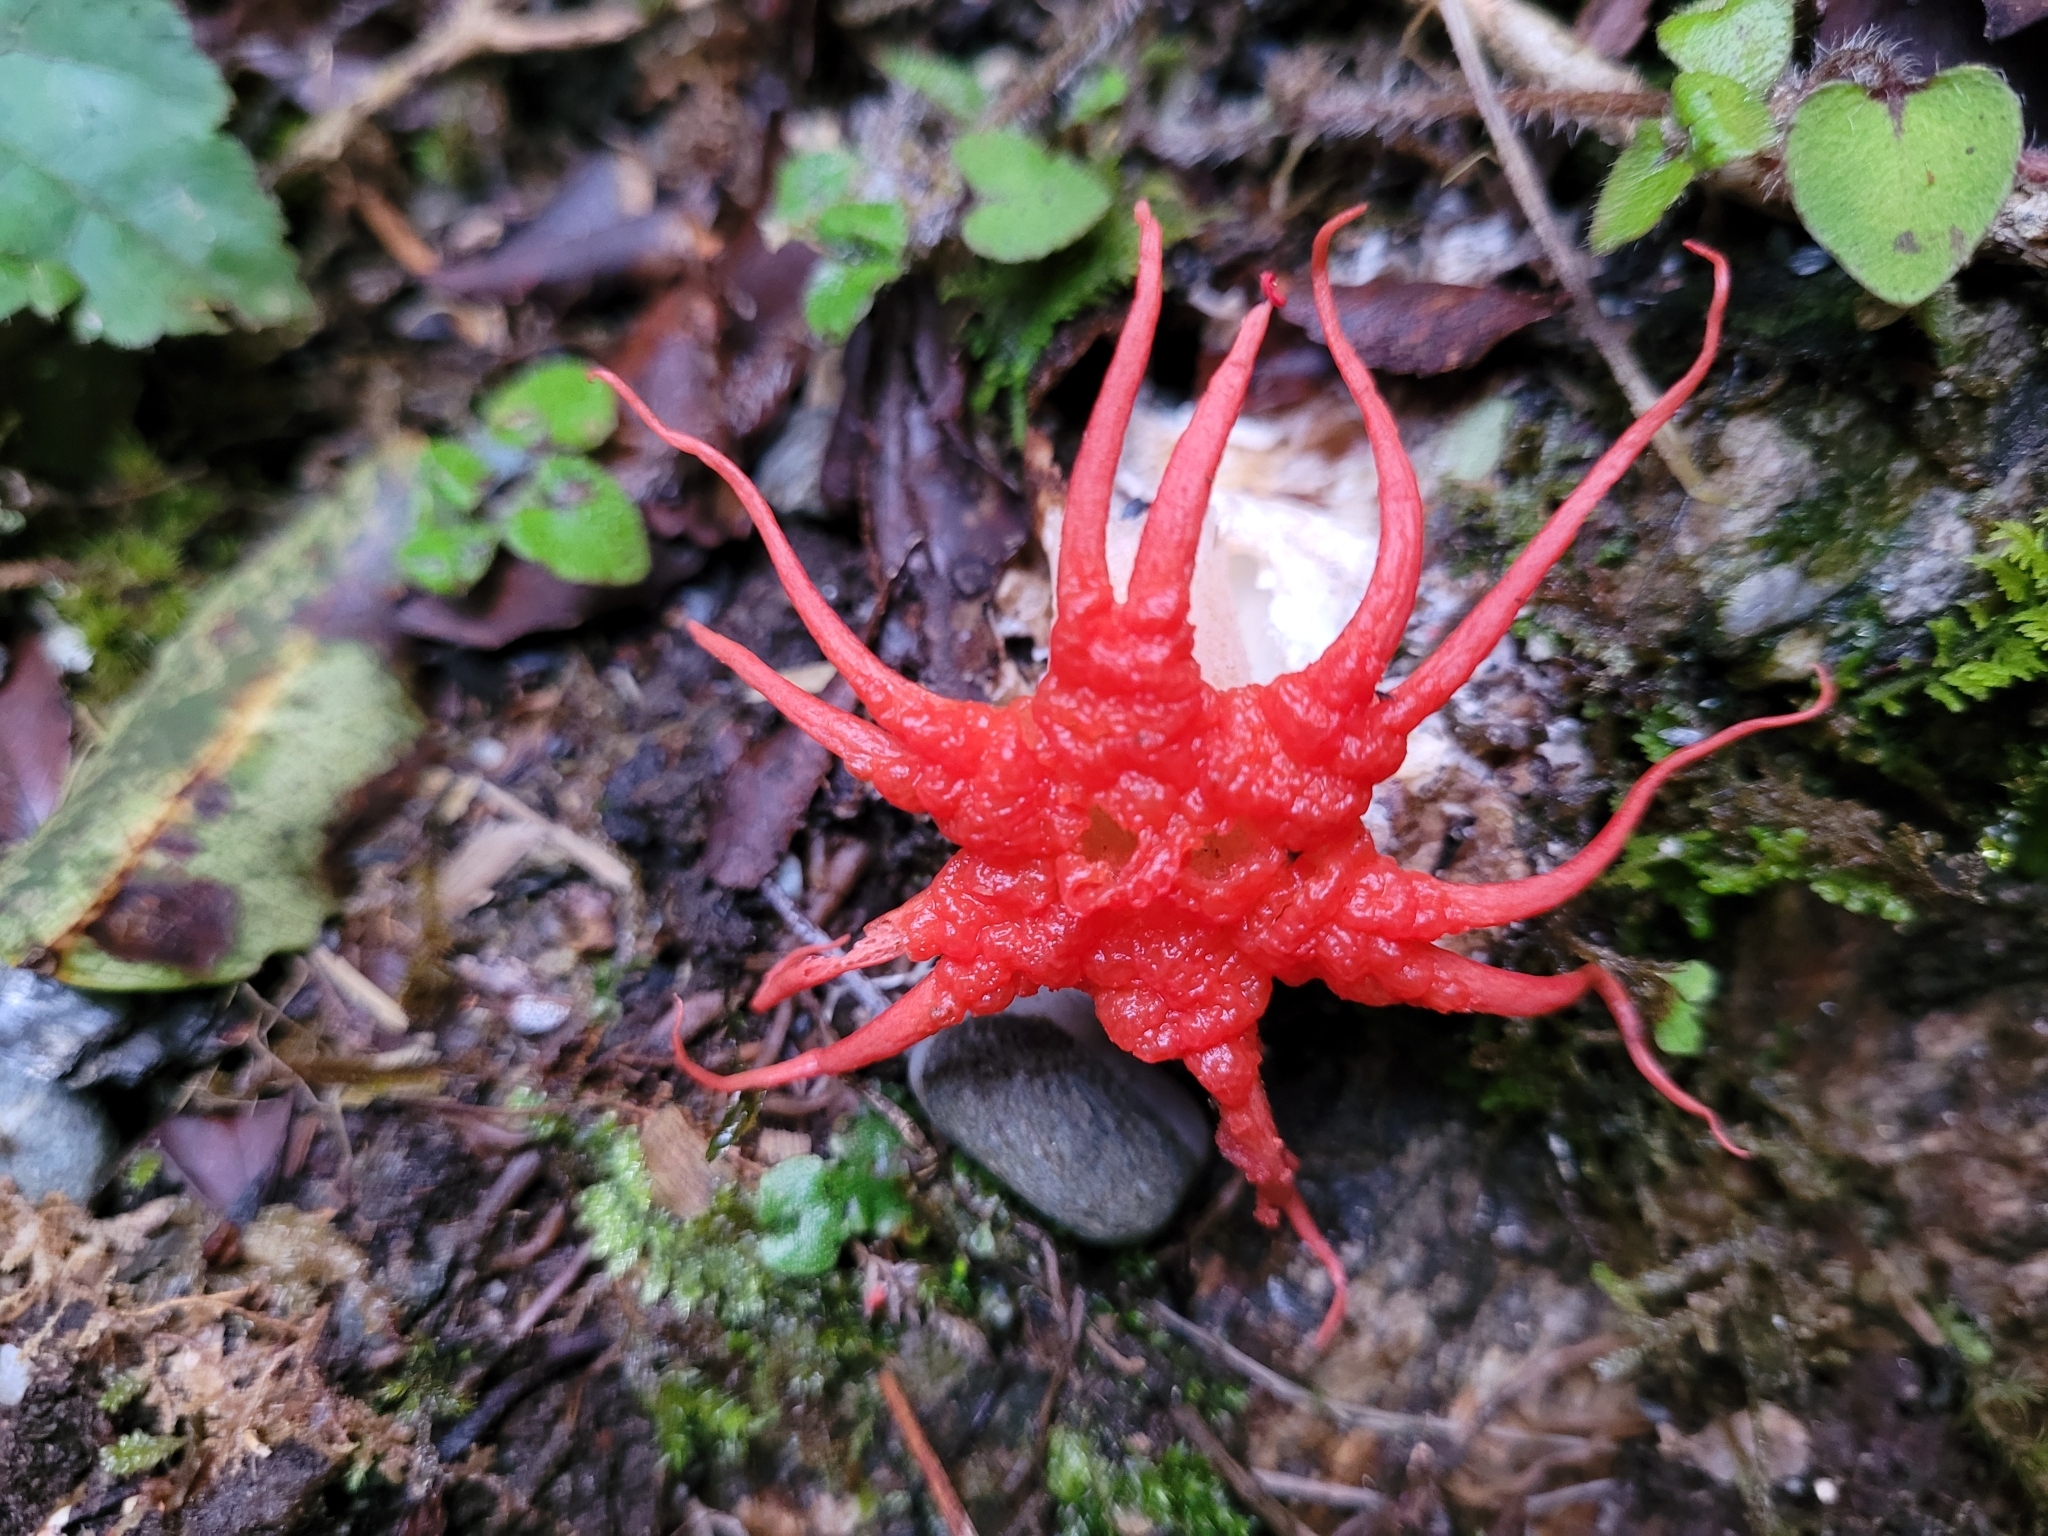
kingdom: Fungi
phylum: Basidiomycota
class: Agaricomycetes
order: Phallales
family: Phallaceae
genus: Aseroe
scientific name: Aseroe rubra
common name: Starfish fungus
